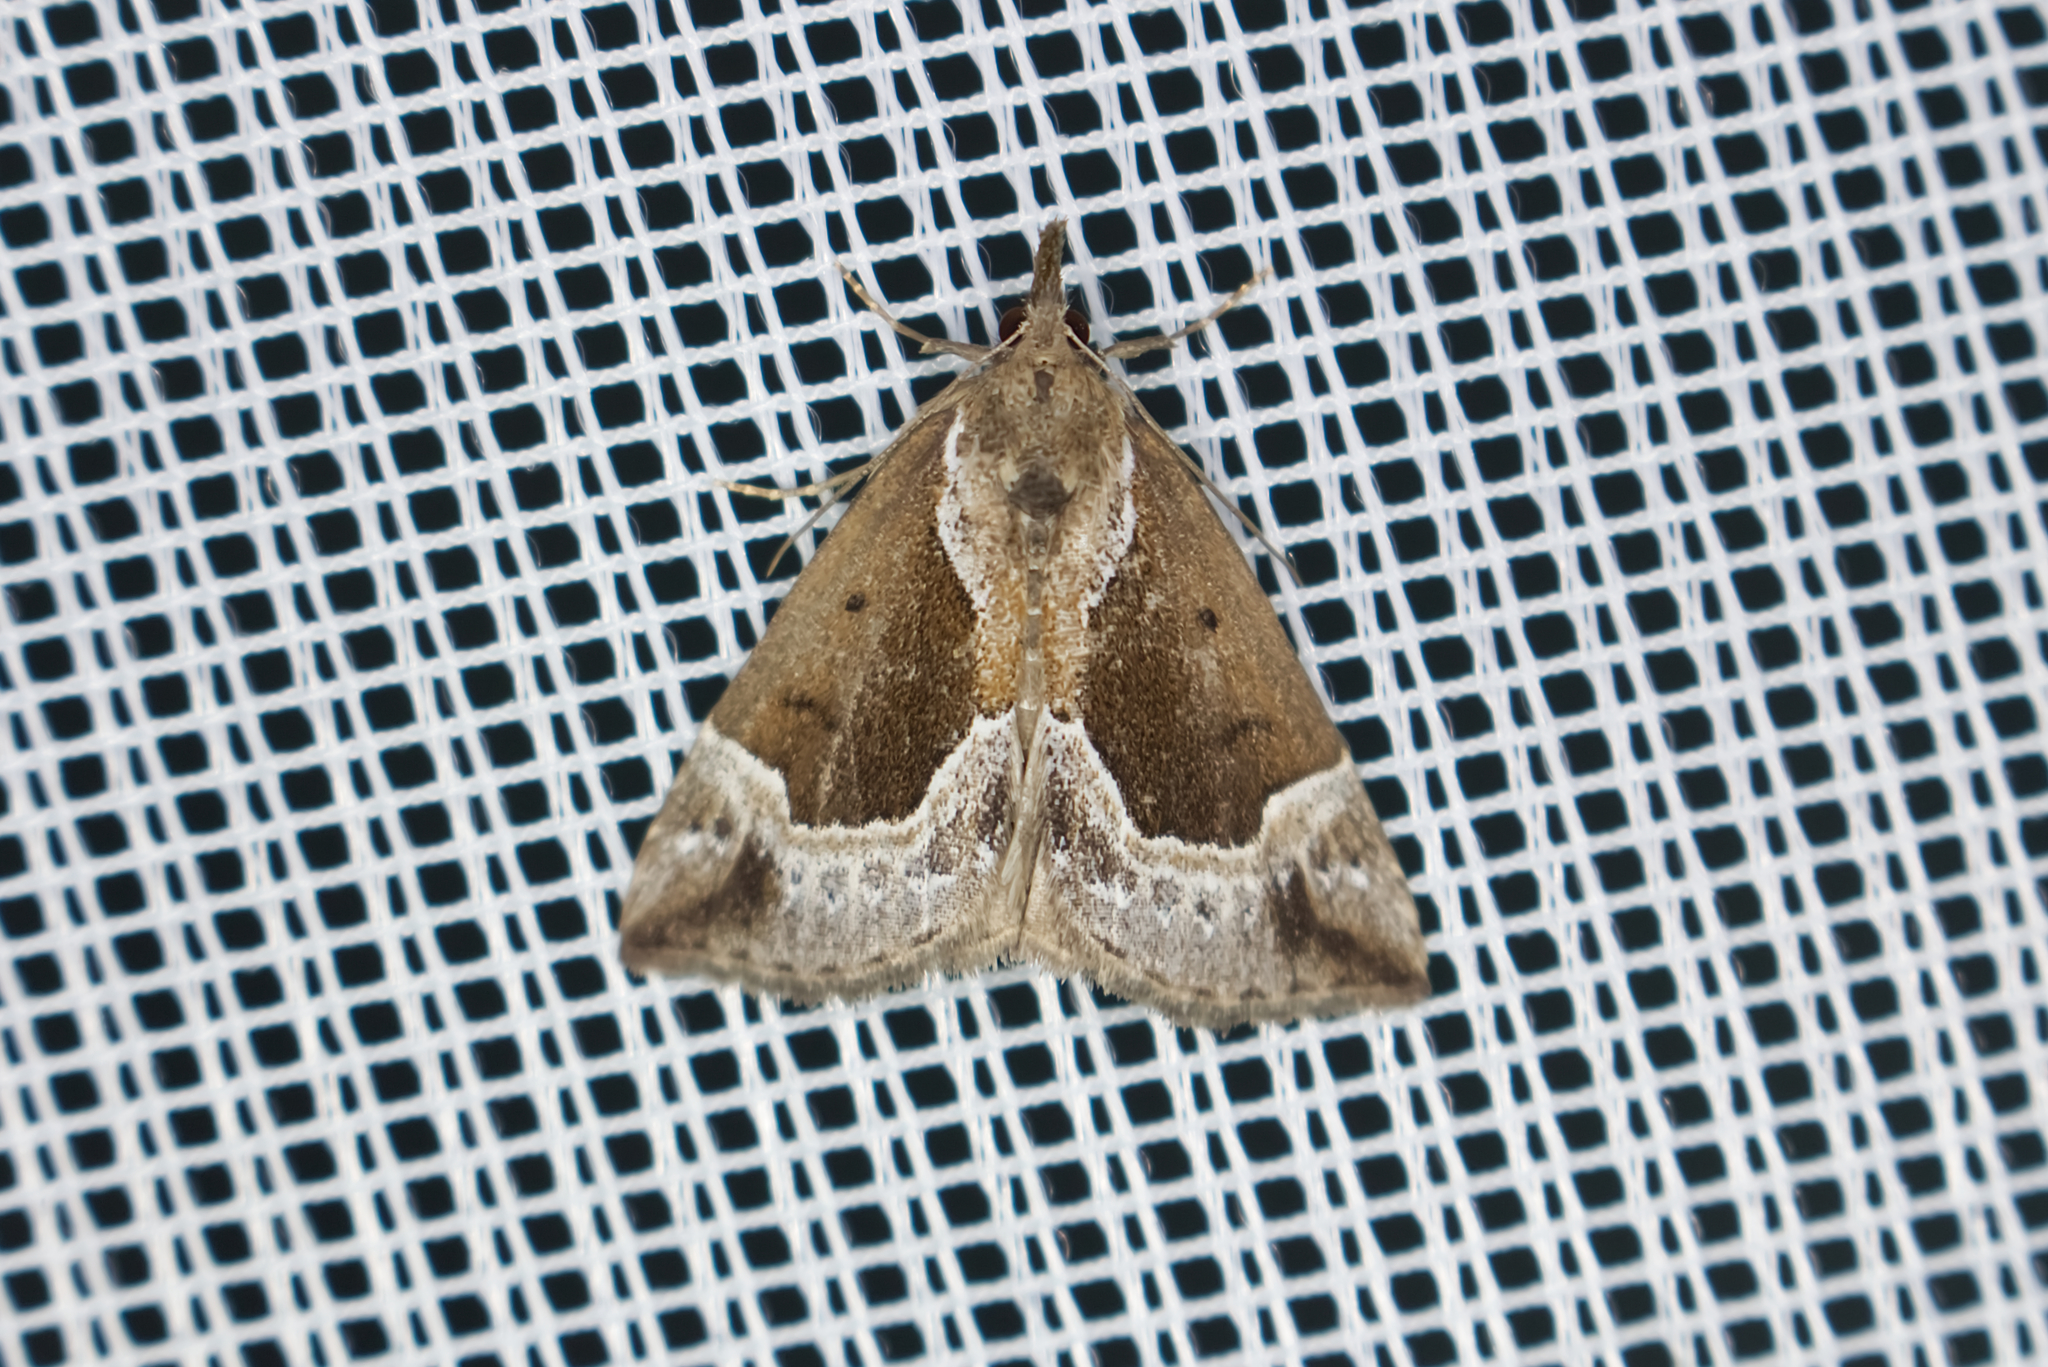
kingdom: Animalia
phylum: Arthropoda
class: Insecta
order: Lepidoptera
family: Erebidae
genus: Hypena
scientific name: Hypena crassalis
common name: Beautiful snout
